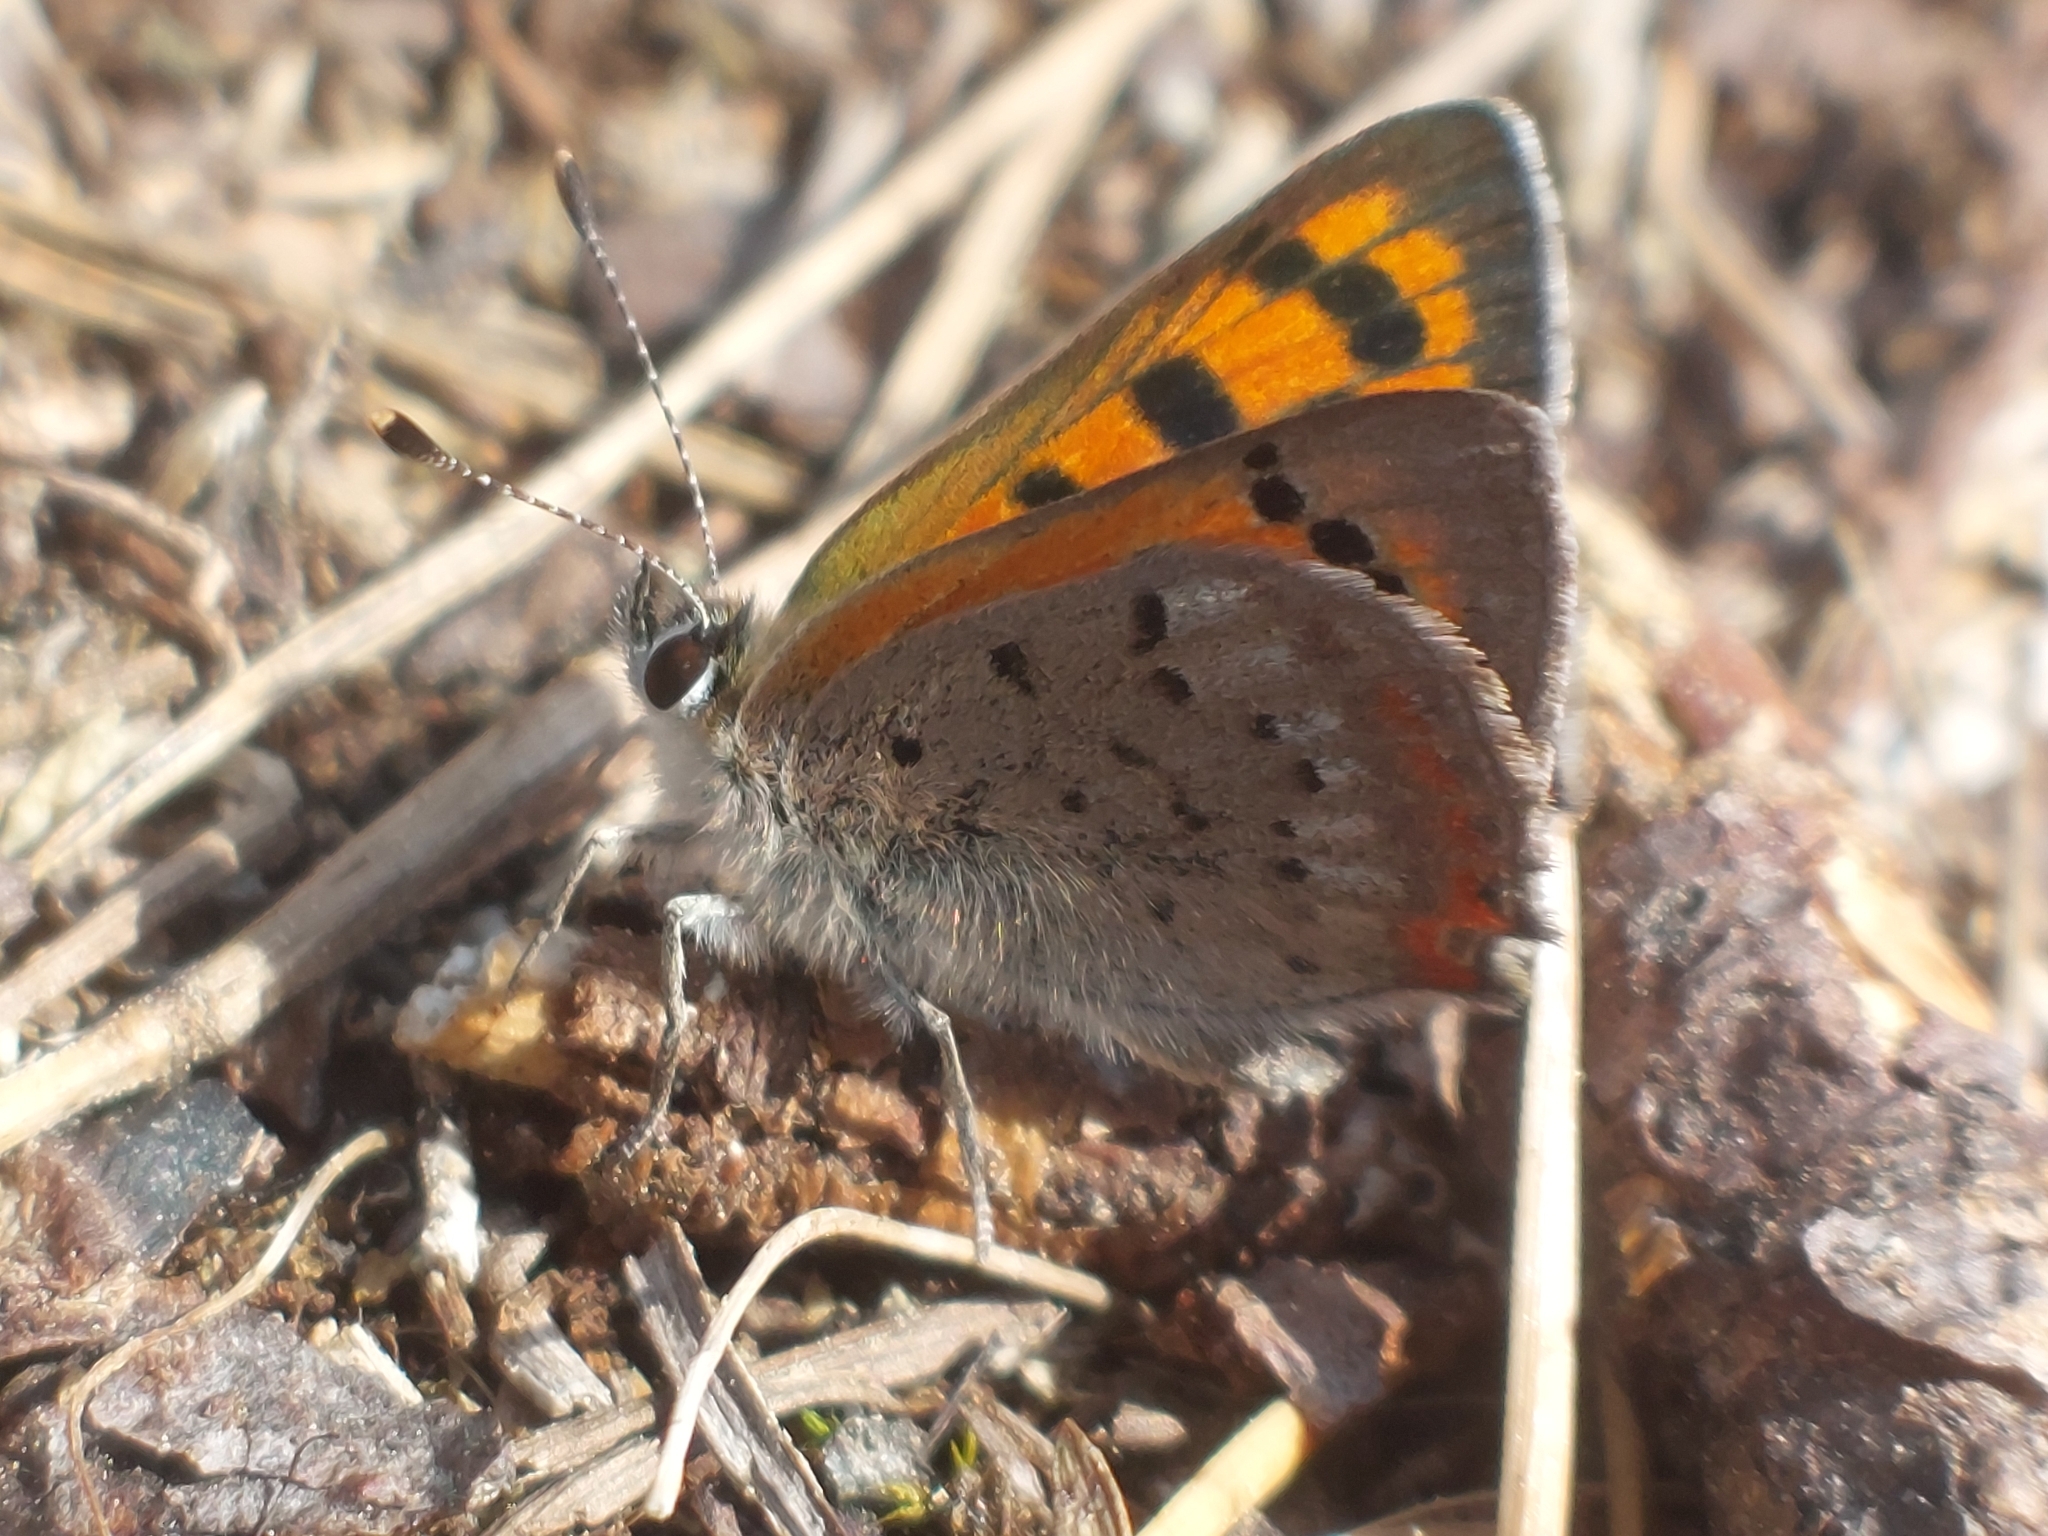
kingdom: Animalia
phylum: Arthropoda
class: Insecta
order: Lepidoptera
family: Lycaenidae
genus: Lycaena
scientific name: Lycaena phlaeas
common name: Small copper
